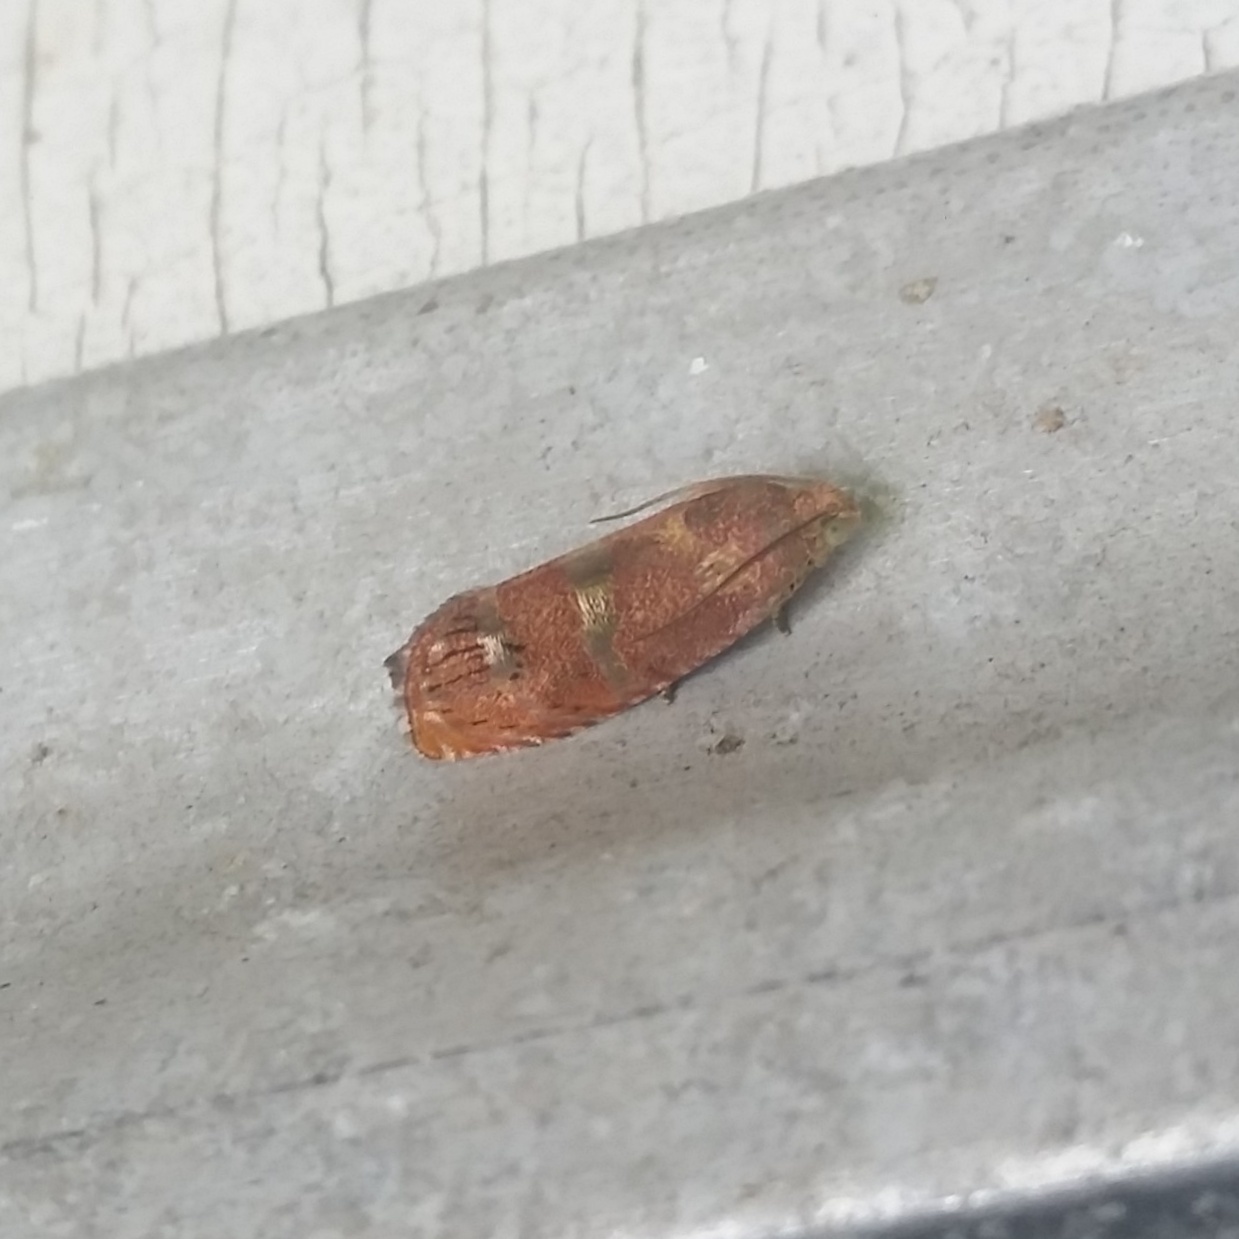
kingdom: Animalia
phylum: Arthropoda
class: Insecta
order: Lepidoptera
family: Tortricidae
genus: Cydia
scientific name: Cydia latiferreana
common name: Filbertworm moth
